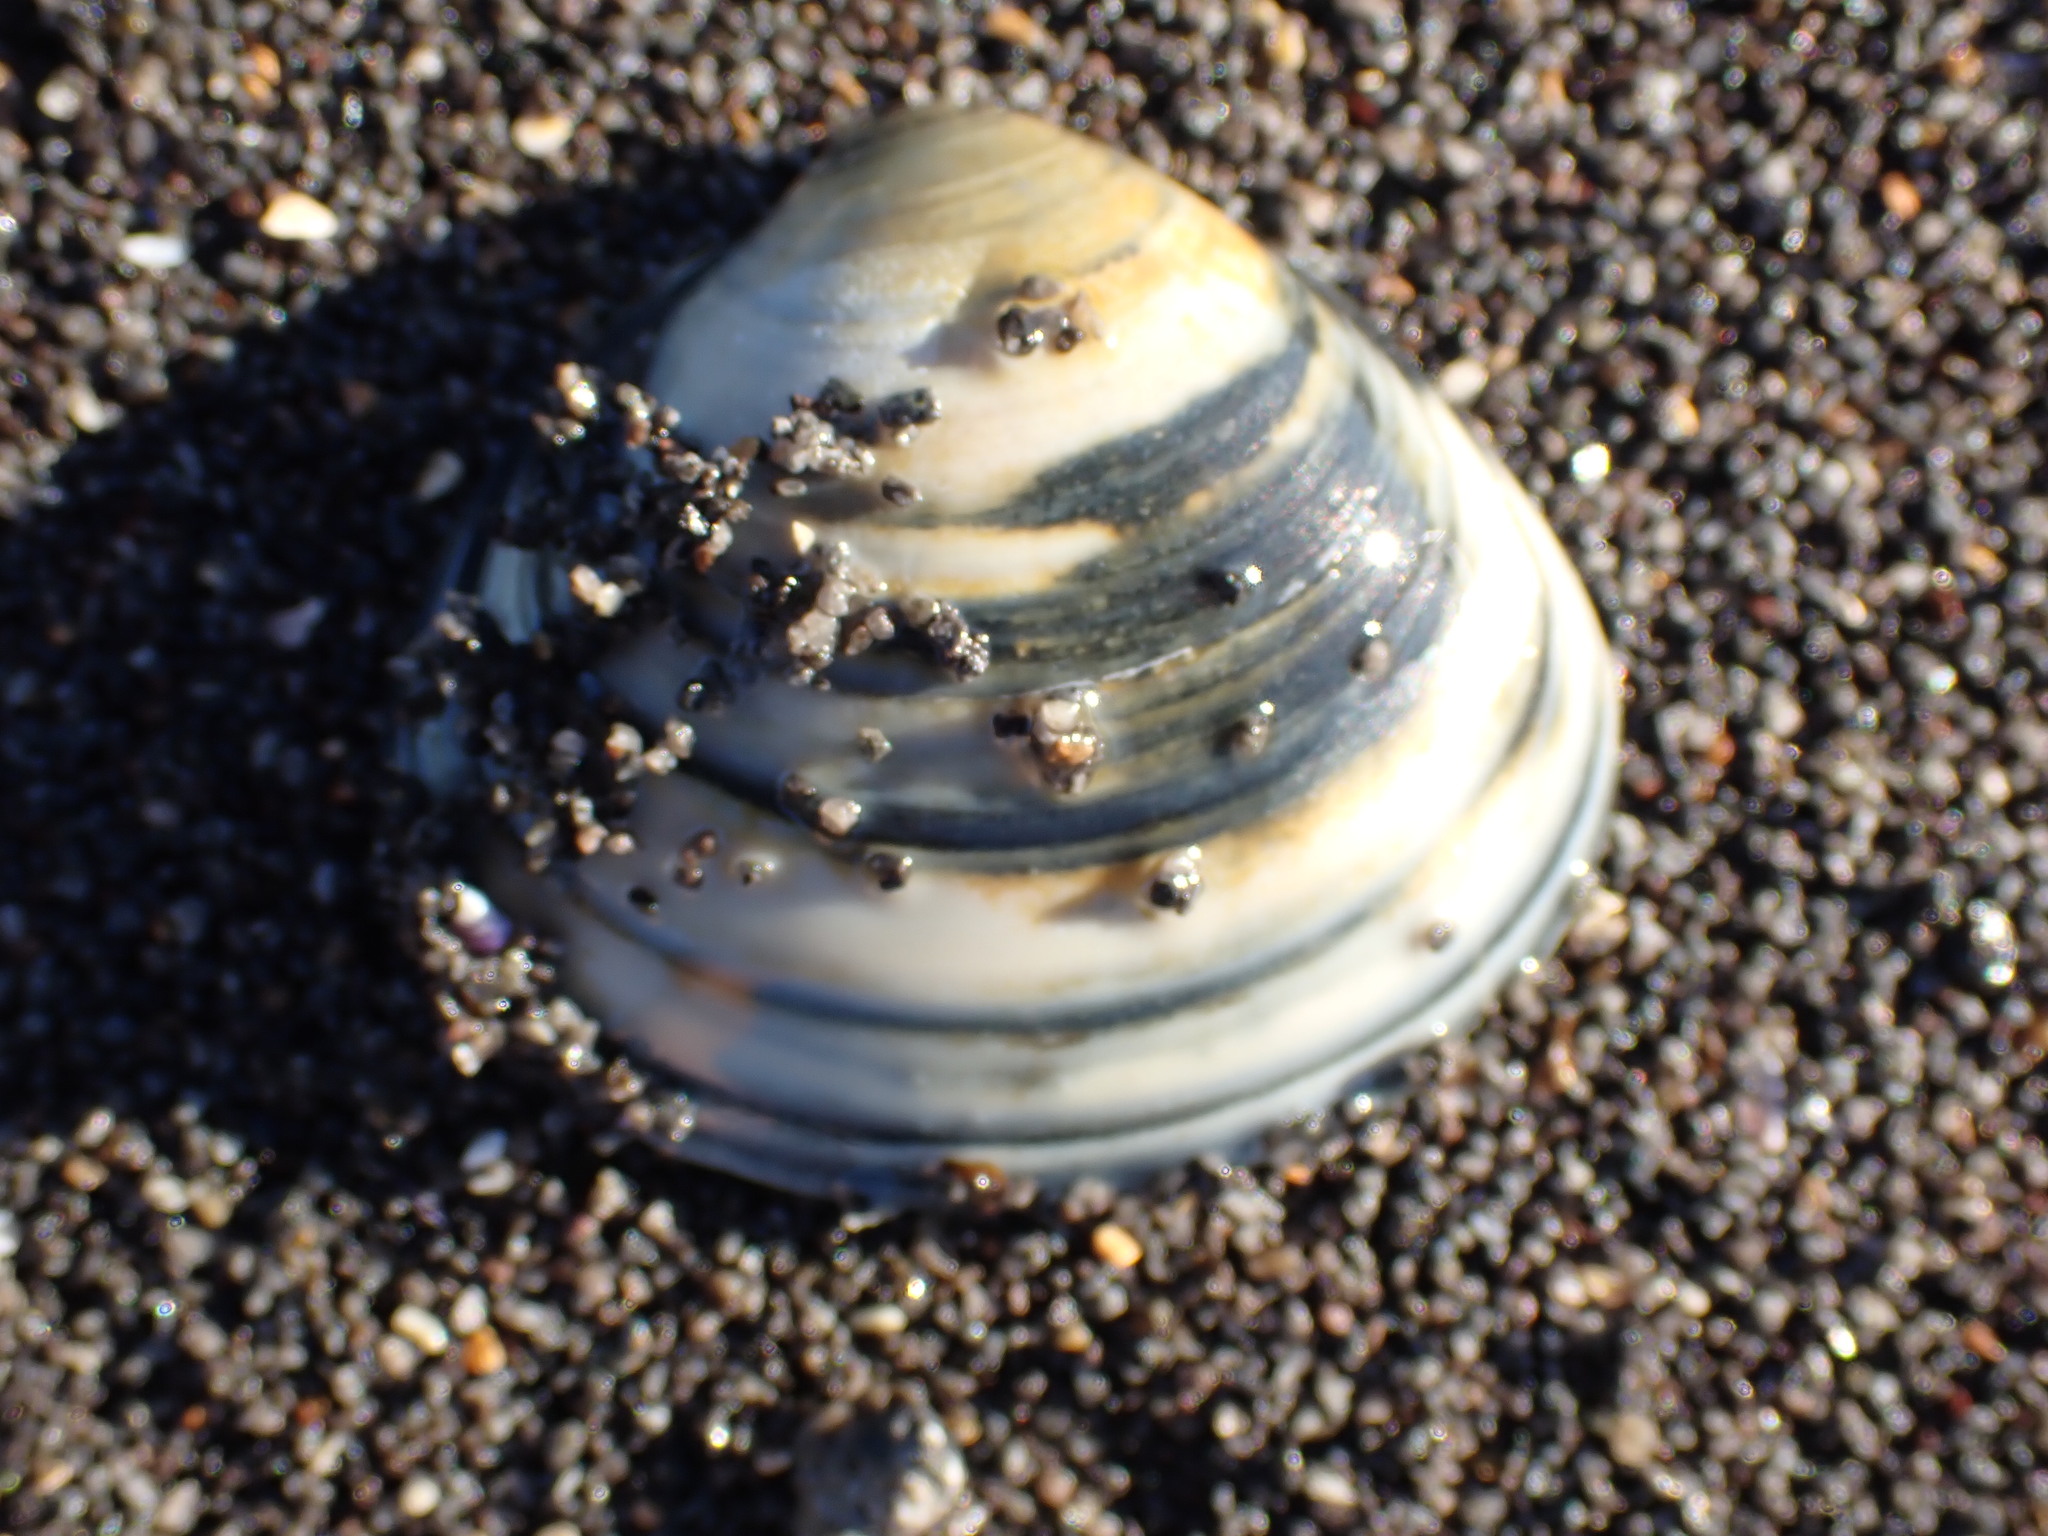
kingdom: Animalia
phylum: Mollusca
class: Bivalvia
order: Venerida
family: Mactridae
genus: Spisula
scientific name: Spisula discors
